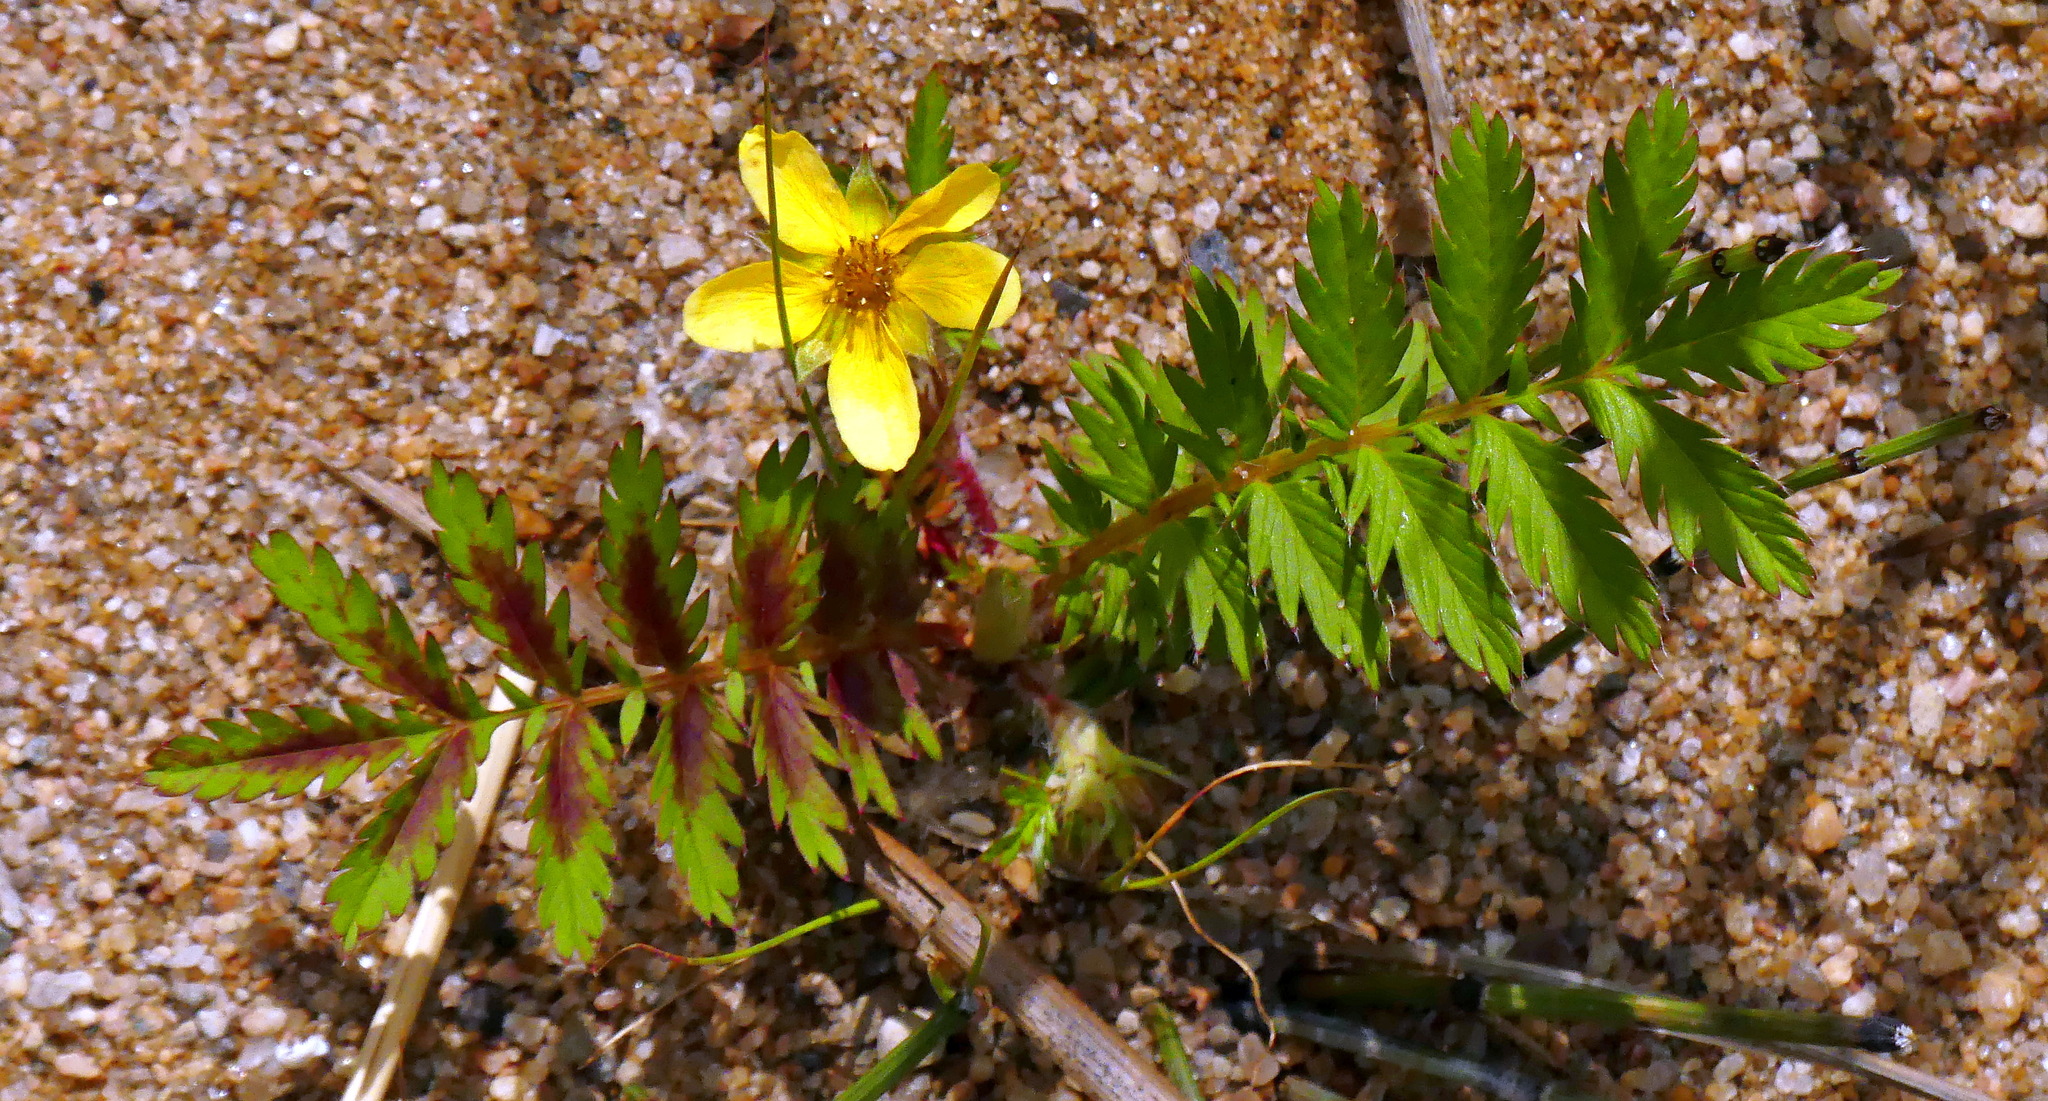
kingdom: Plantae
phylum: Tracheophyta
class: Magnoliopsida
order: Rosales
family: Rosaceae
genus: Argentina
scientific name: Argentina anserina
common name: Common silverweed
